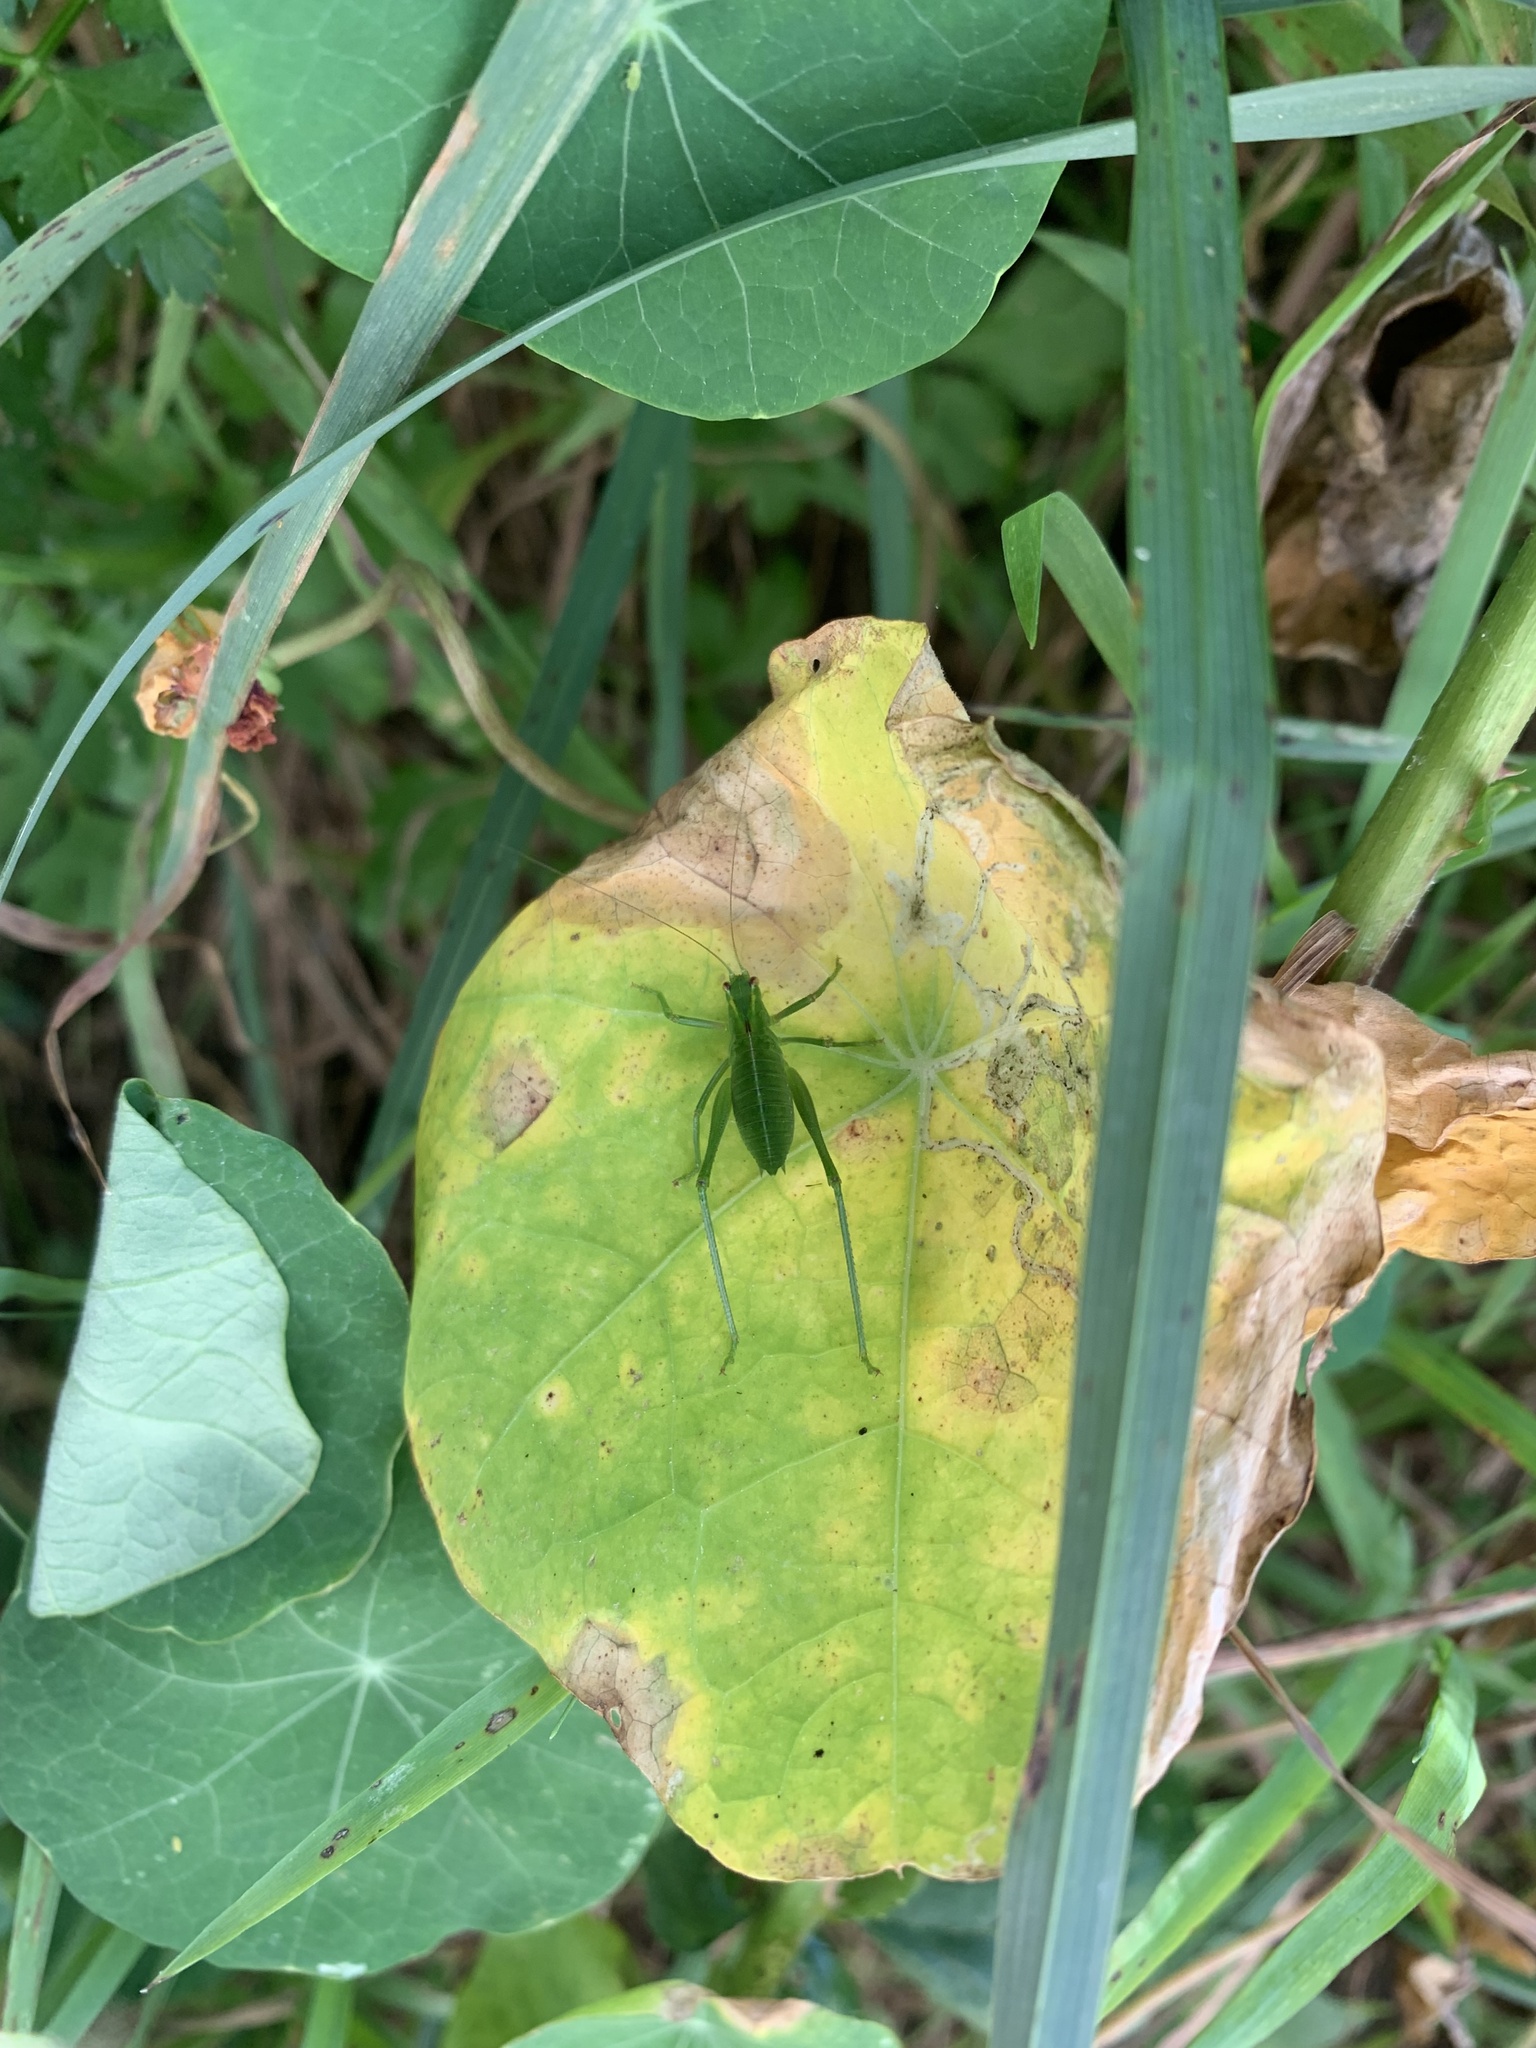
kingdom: Animalia
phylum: Arthropoda
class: Insecta
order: Orthoptera
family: Tettigoniidae
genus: Caedicia
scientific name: Caedicia simplex
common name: Common garden katydid
